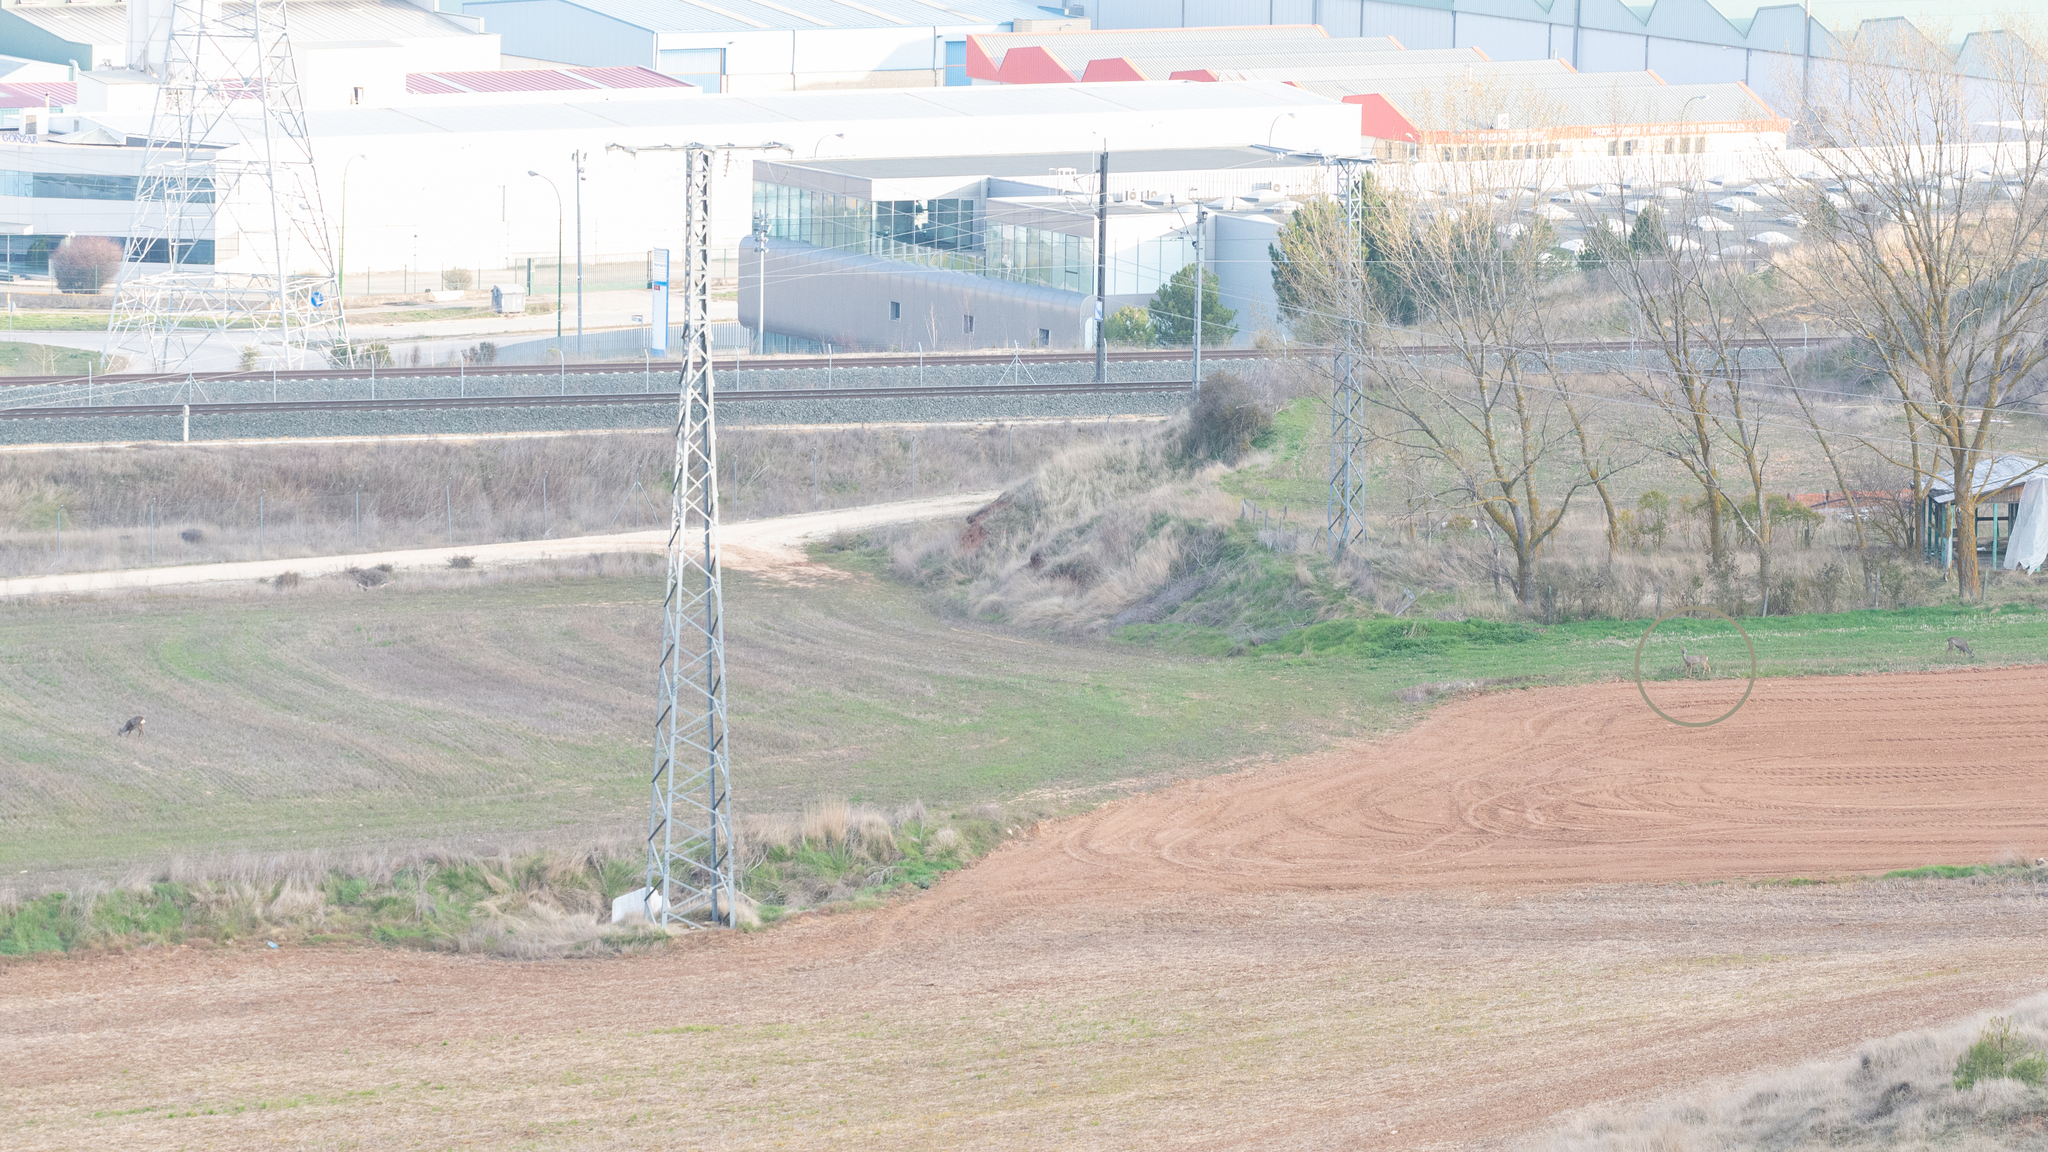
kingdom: Animalia
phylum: Chordata
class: Mammalia
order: Artiodactyla
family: Cervidae
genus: Capreolus
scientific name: Capreolus capreolus
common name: Western roe deer
